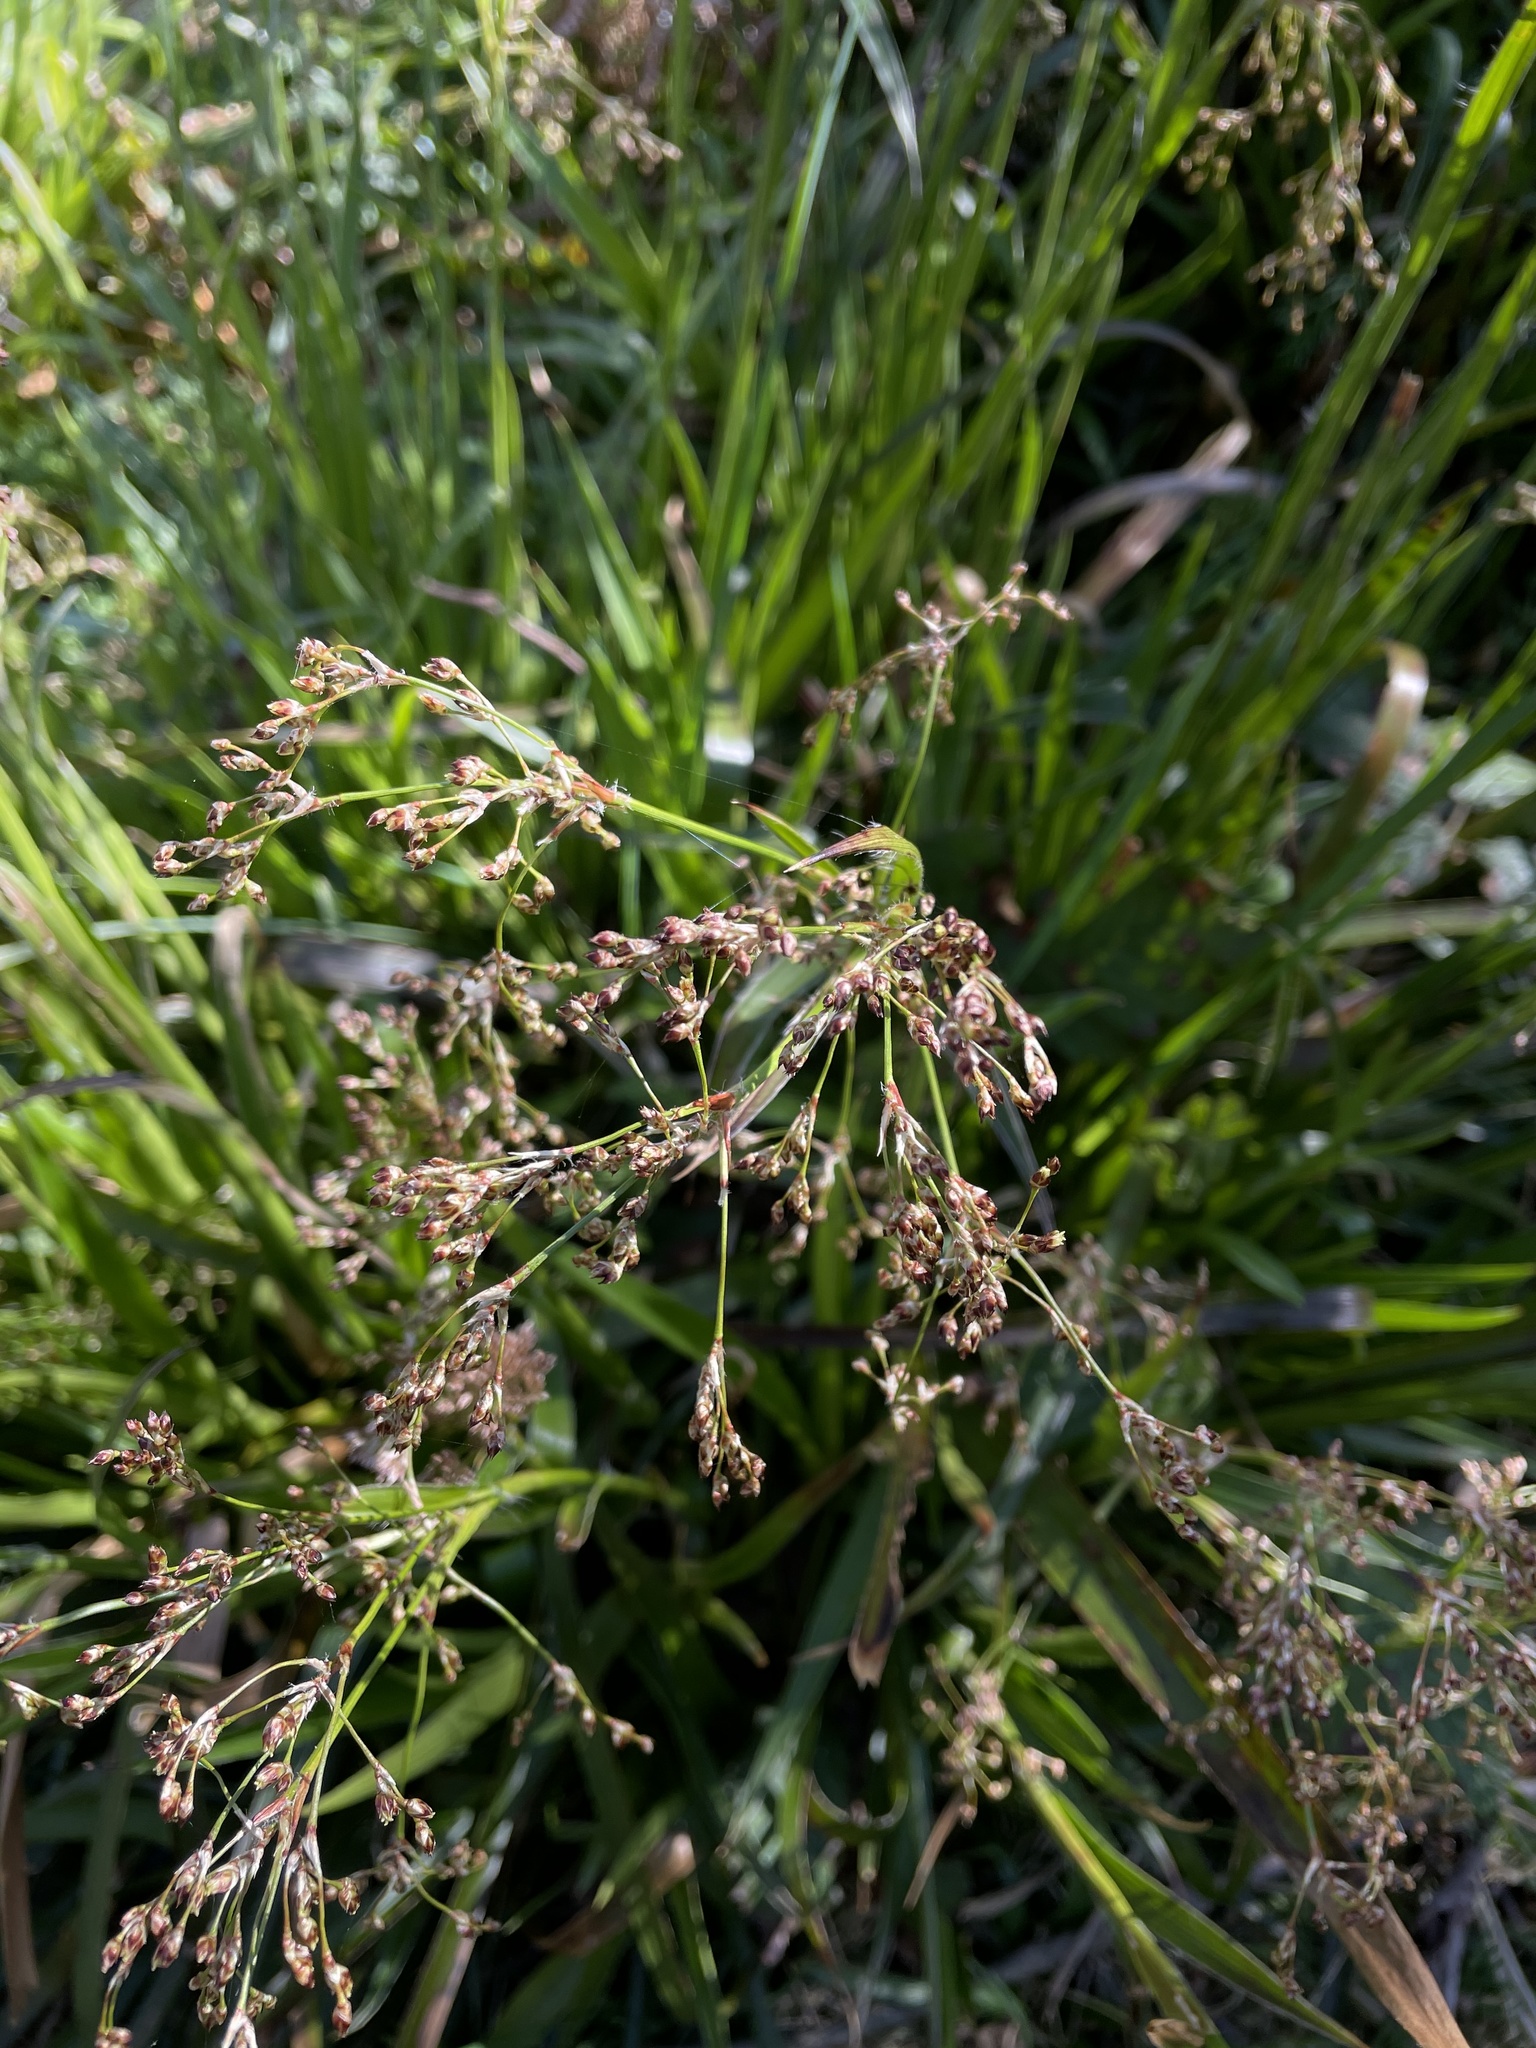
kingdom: Plantae
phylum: Tracheophyta
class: Liliopsida
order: Poales
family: Juncaceae
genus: Luzula
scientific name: Luzula sylvatica
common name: Great wood-rush
